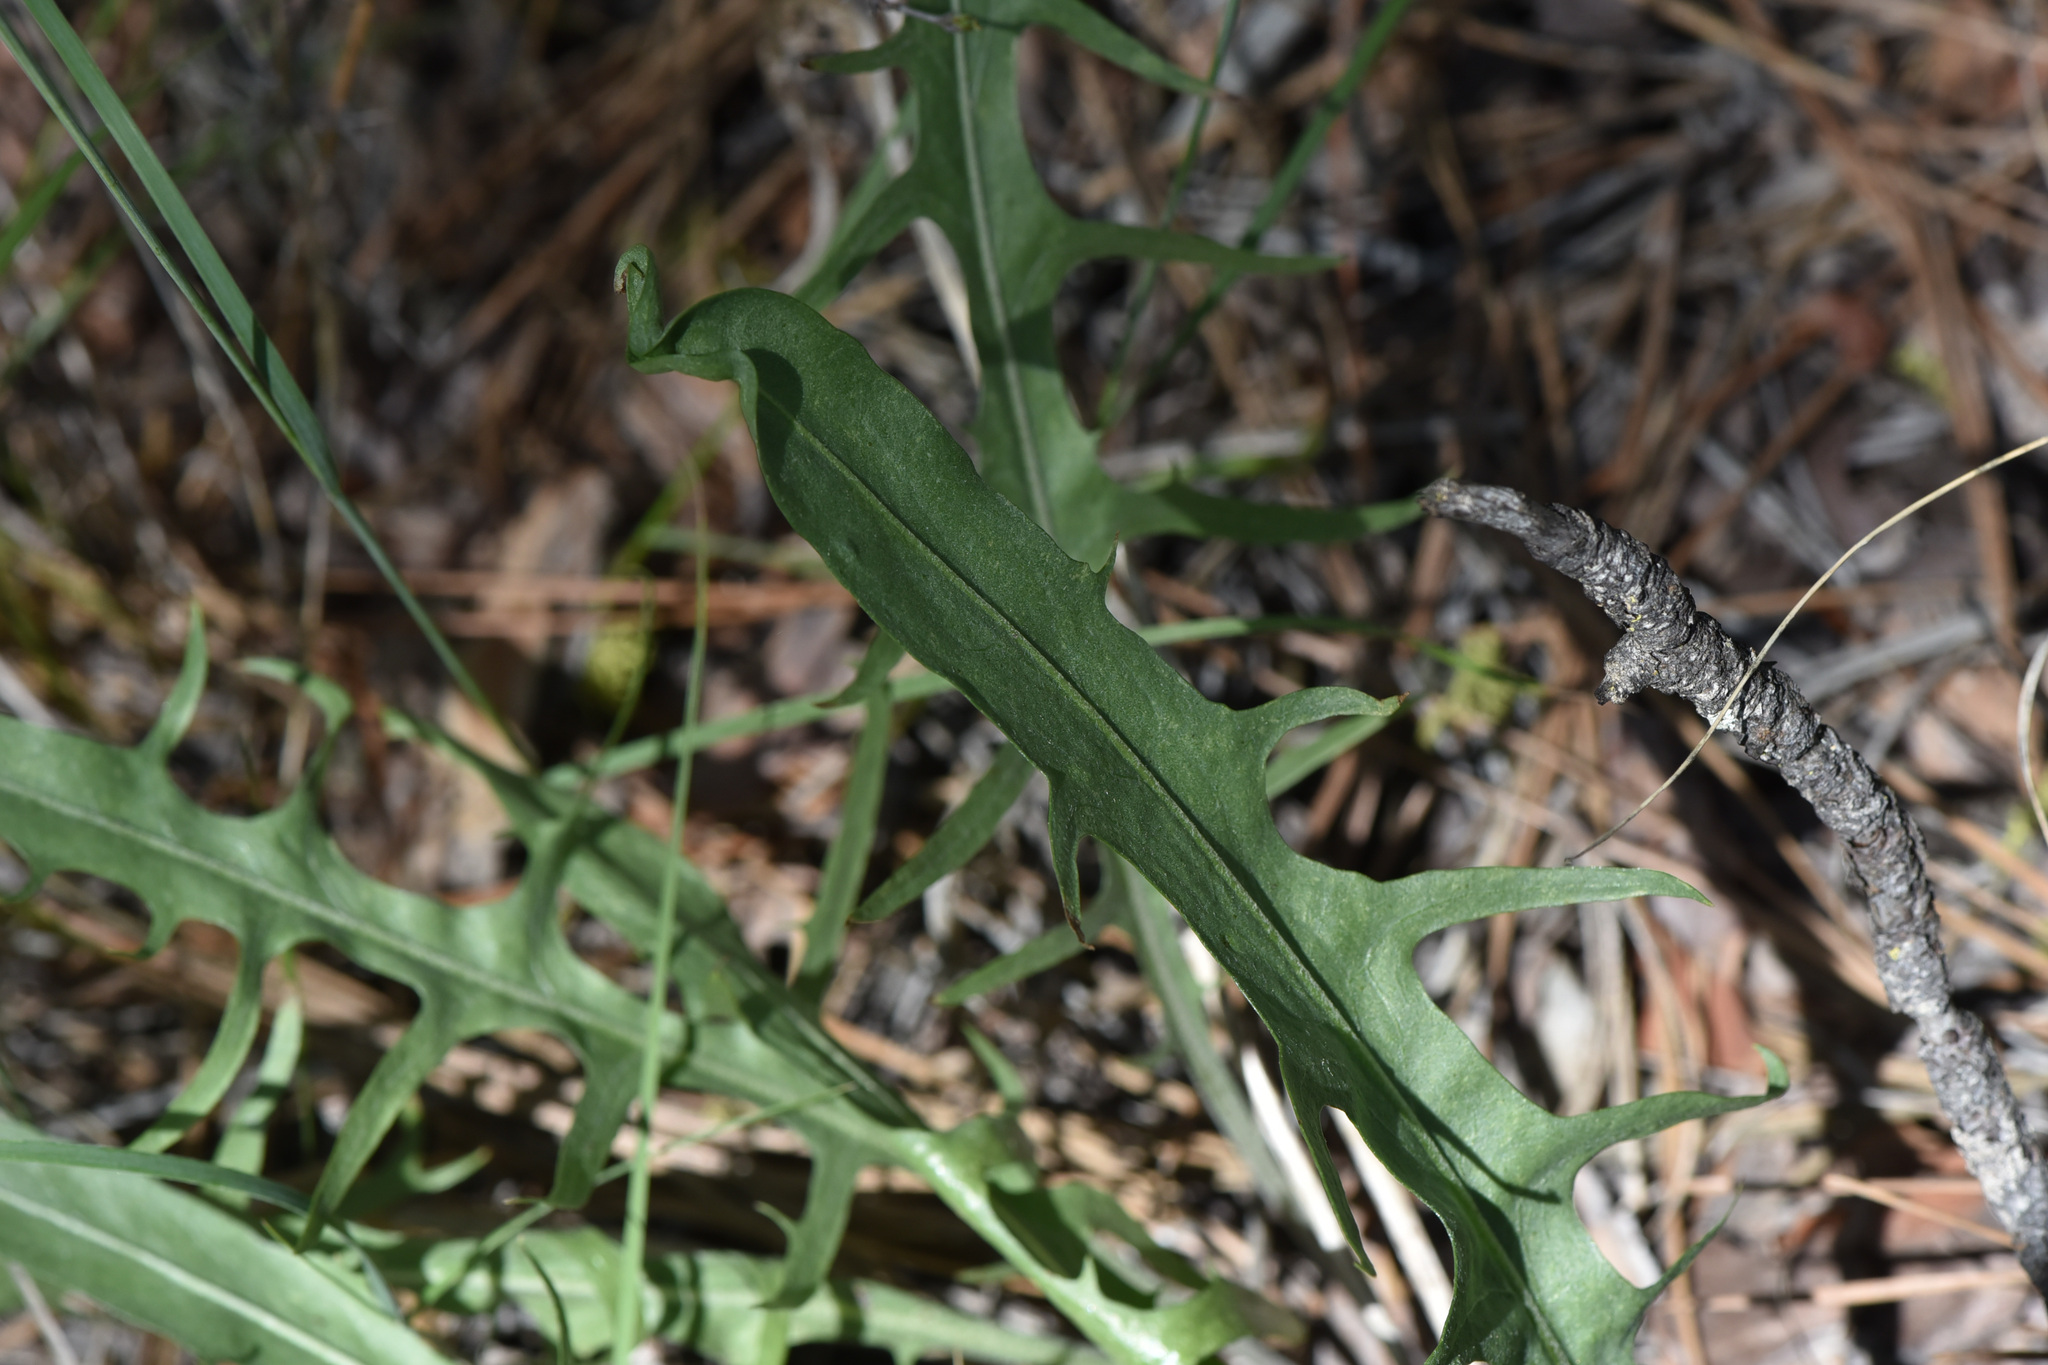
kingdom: Plantae
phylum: Tracheophyta
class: Magnoliopsida
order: Asterales
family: Asteraceae
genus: Crepis
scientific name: Crepis atribarba
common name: Dark hawk's-beard
